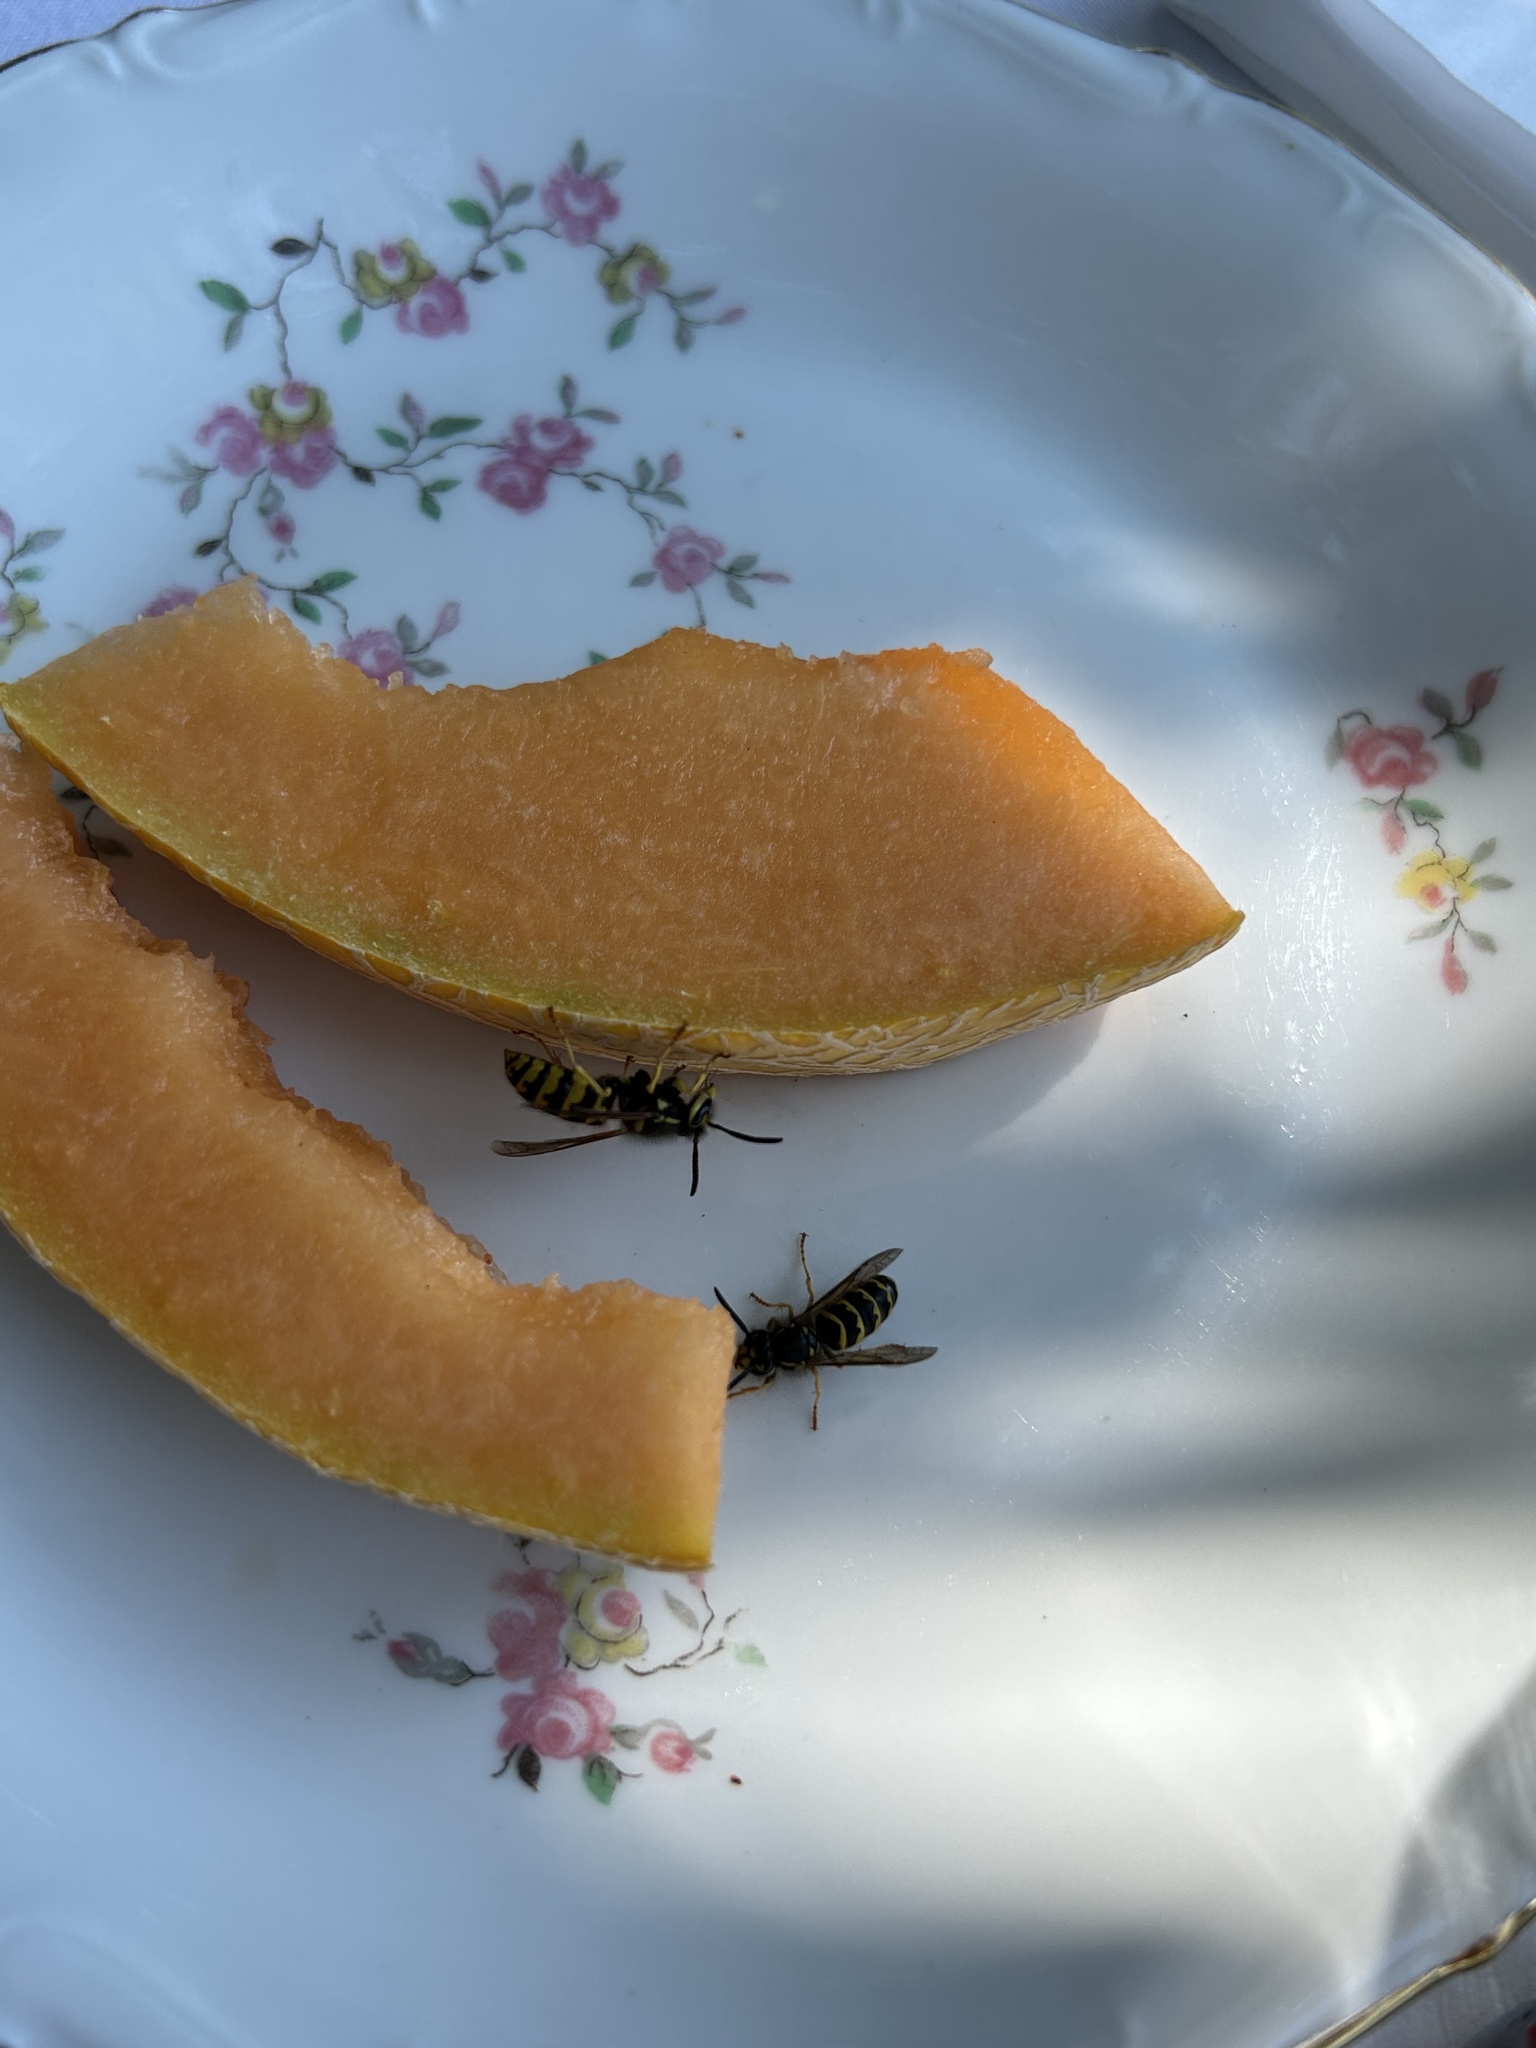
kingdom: Animalia
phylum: Arthropoda
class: Insecta
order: Hymenoptera
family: Vespidae
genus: Vespula
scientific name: Vespula pensylvanica
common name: Western yellowjacket
